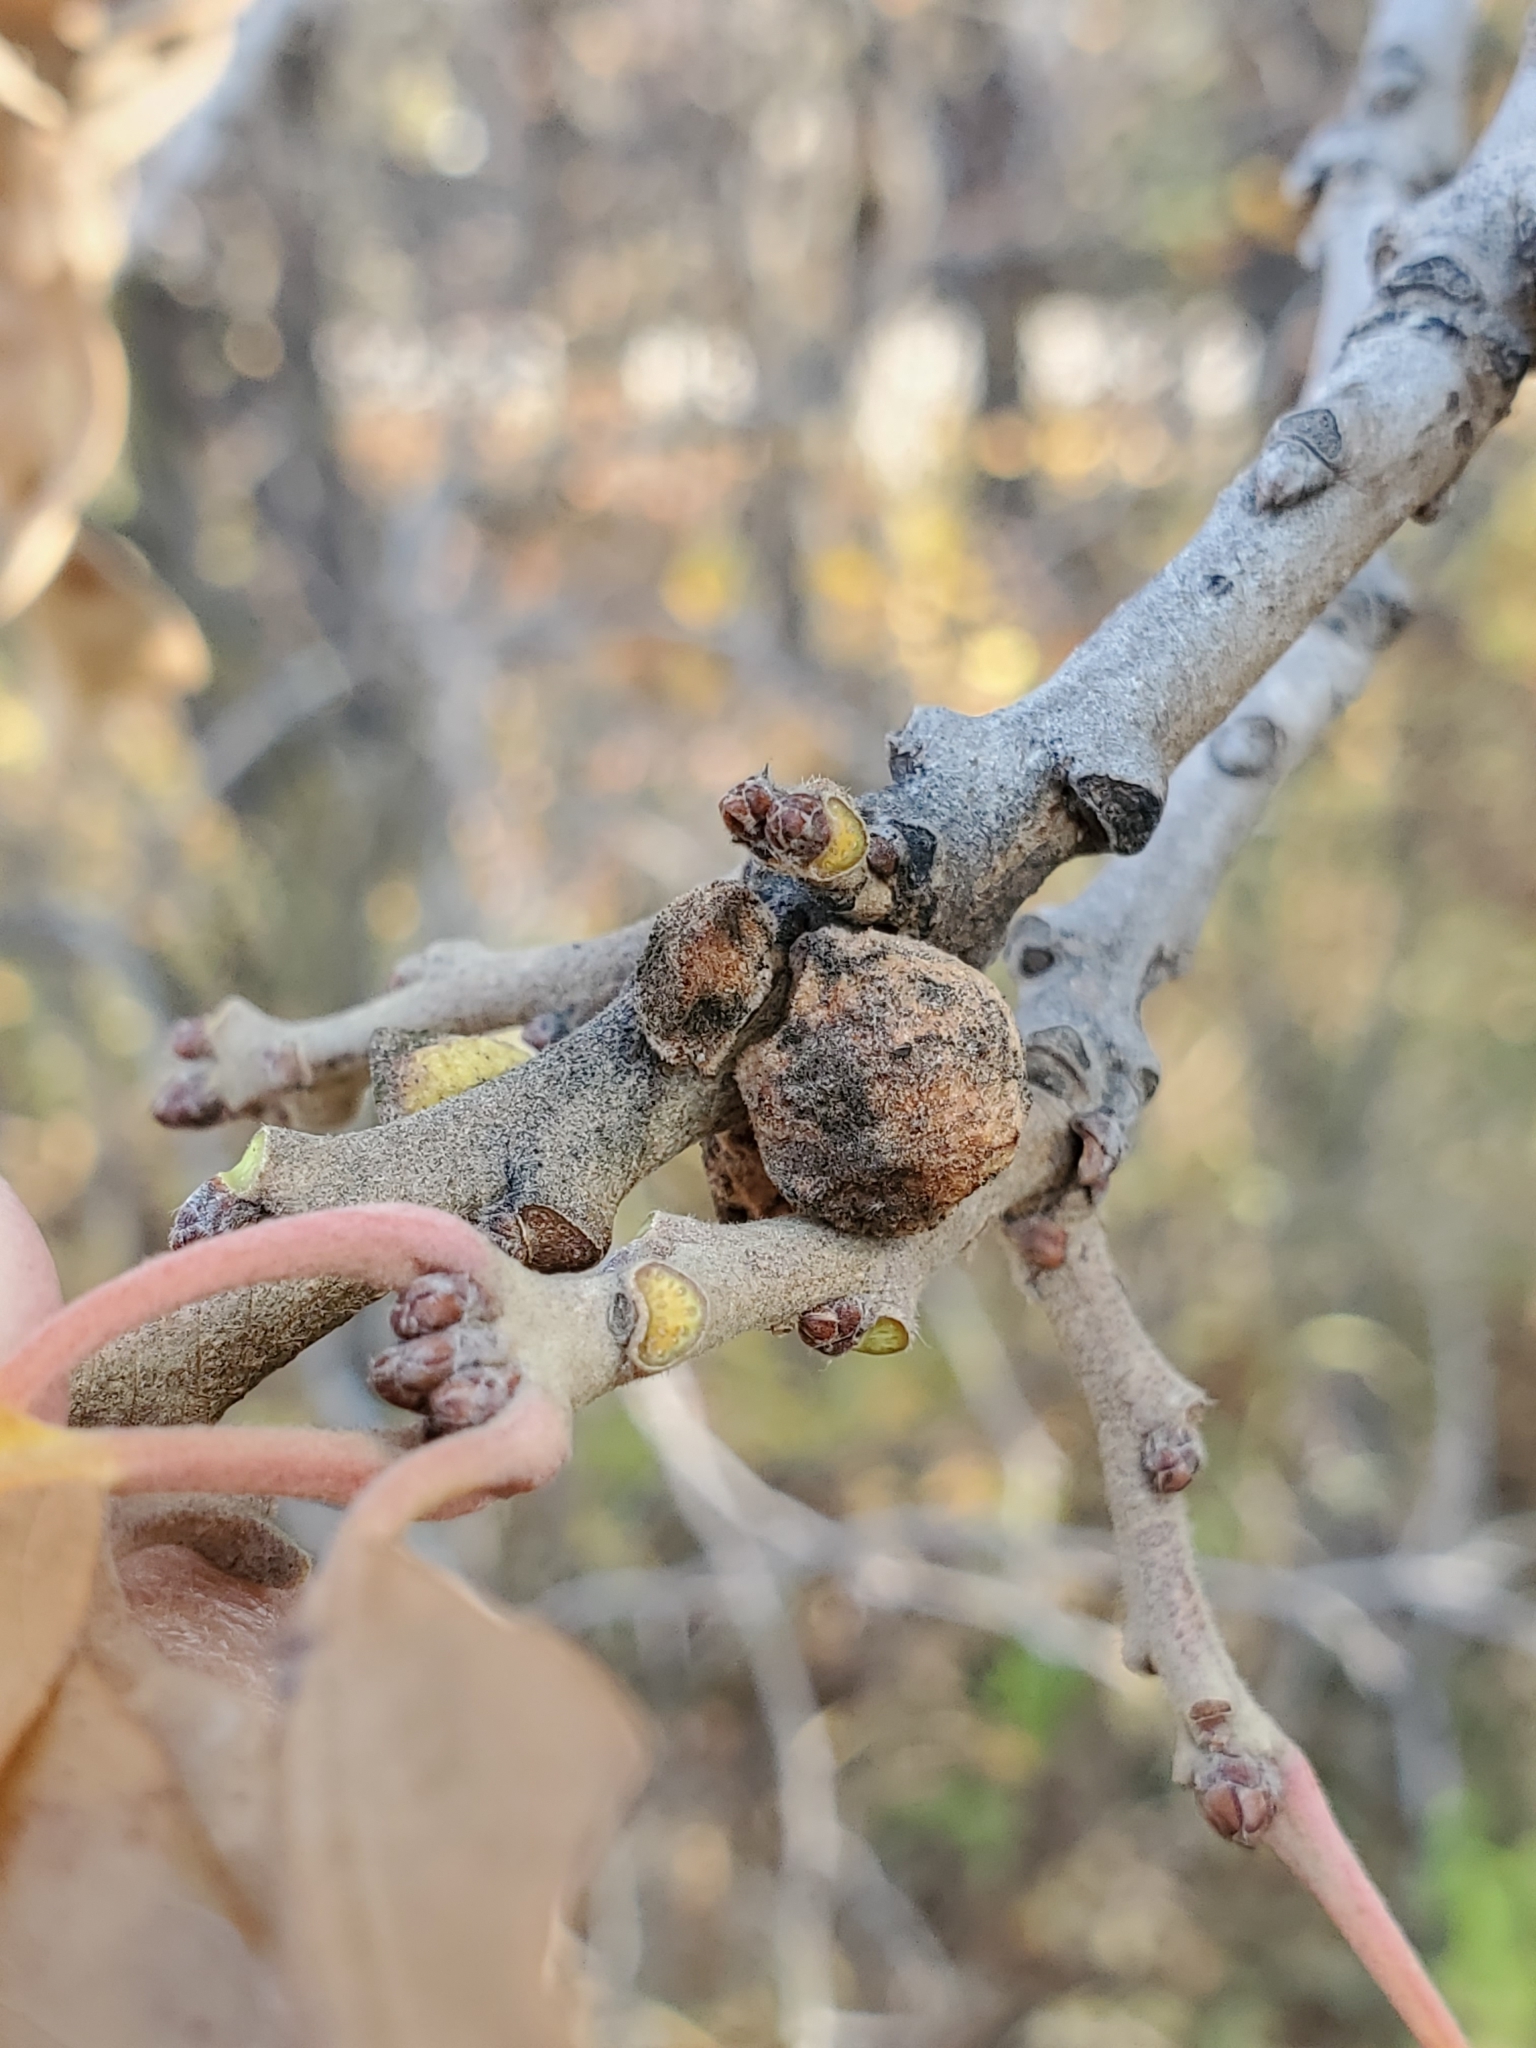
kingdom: Animalia
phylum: Arthropoda
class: Insecta
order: Hymenoptera
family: Cynipidae
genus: Disholcaspis
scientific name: Disholcaspis
